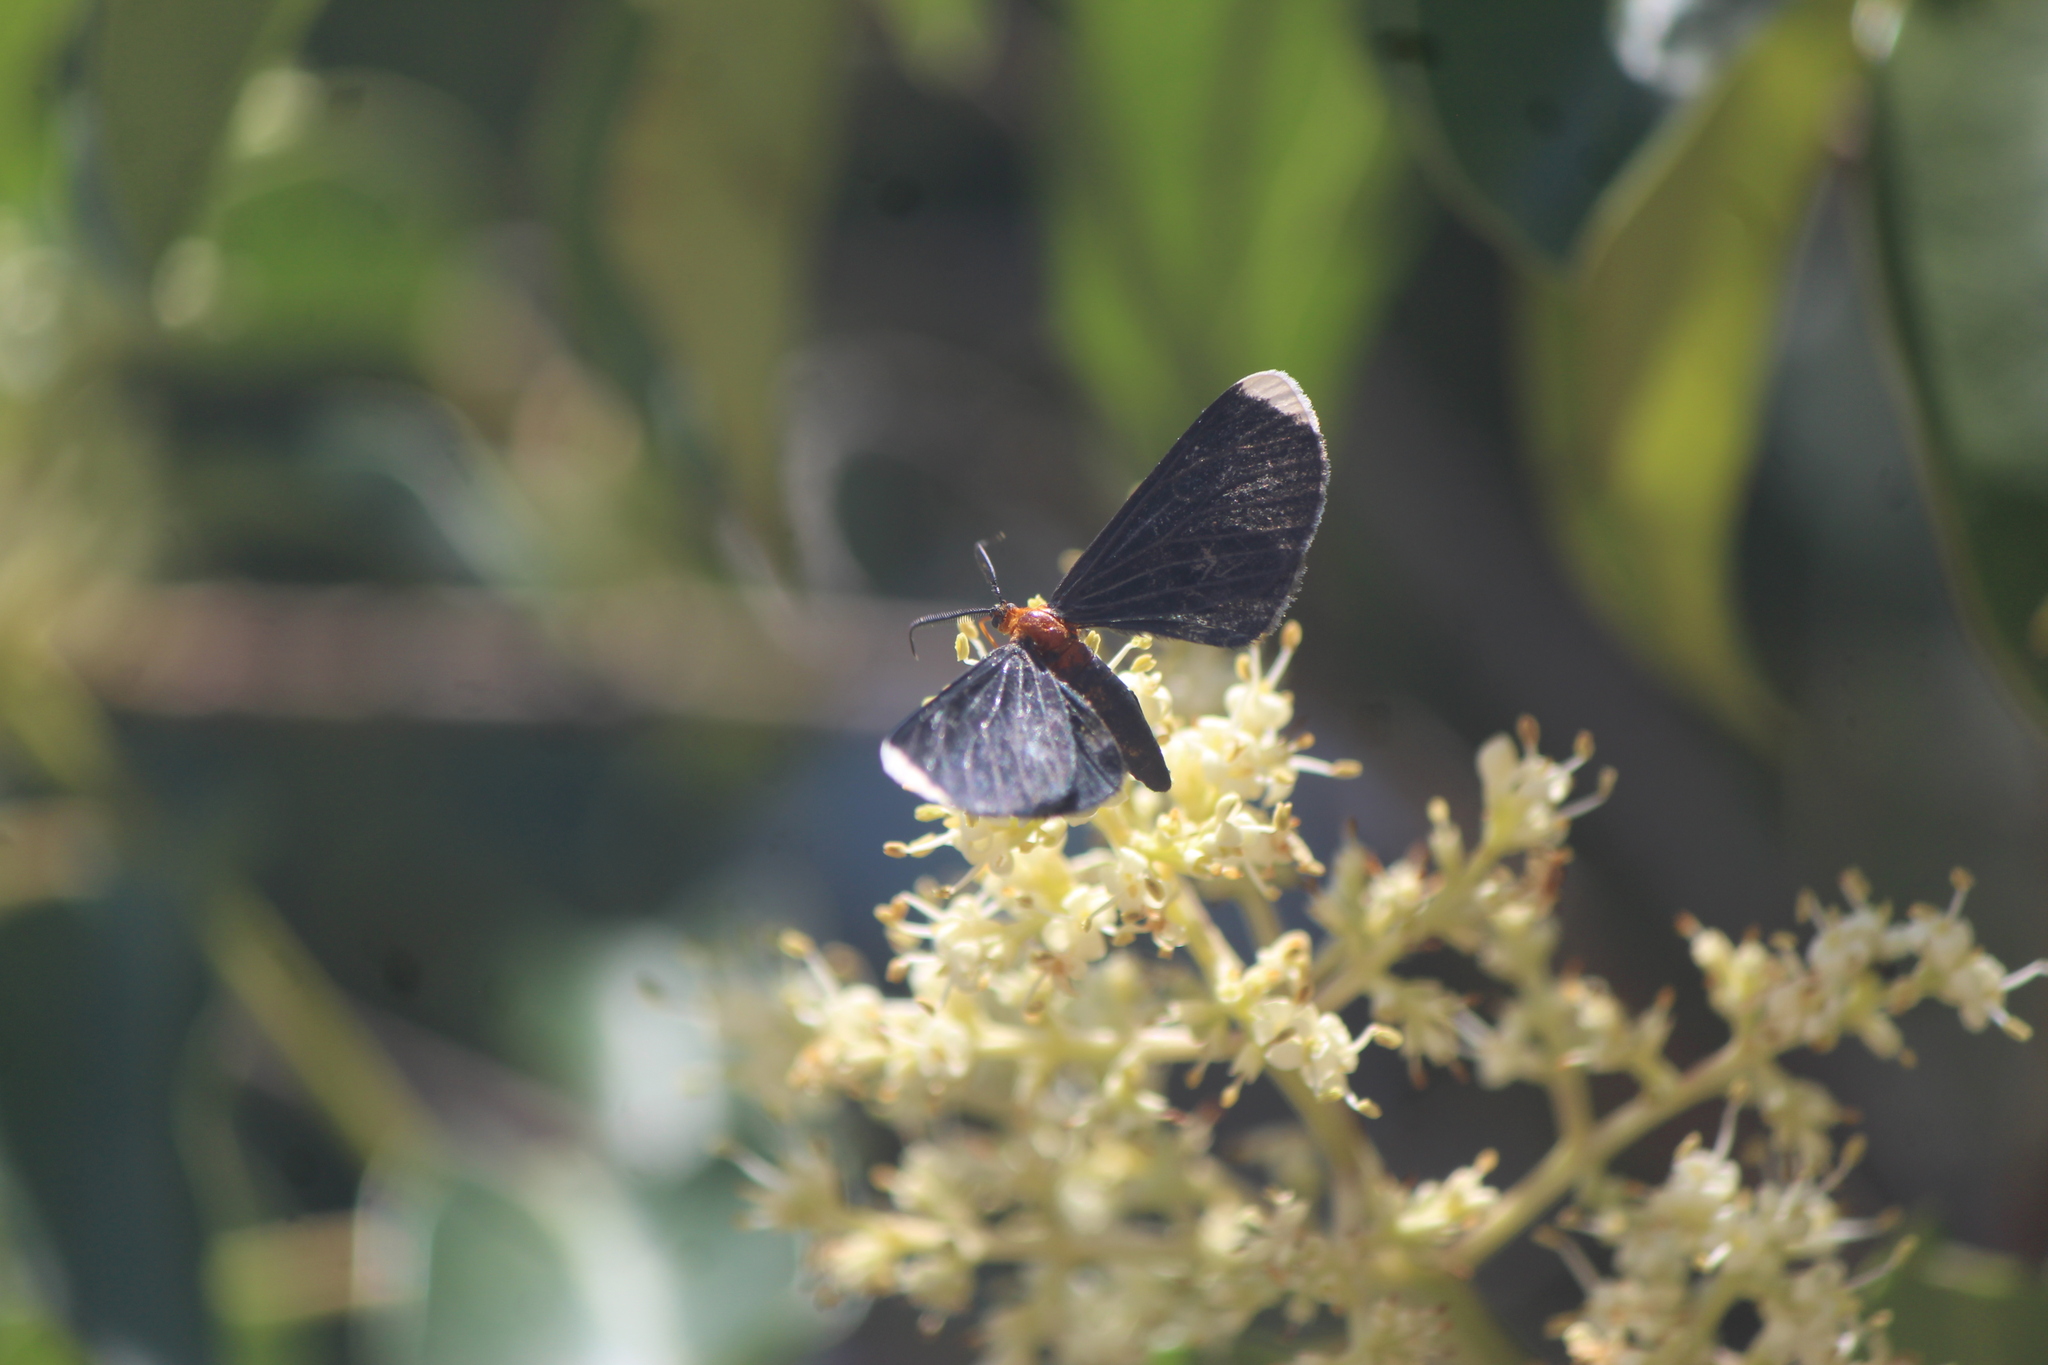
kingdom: Animalia
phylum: Arthropoda
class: Insecta
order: Lepidoptera
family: Geometridae
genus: Melanchroia
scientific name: Melanchroia chephise
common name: White-tipped black
